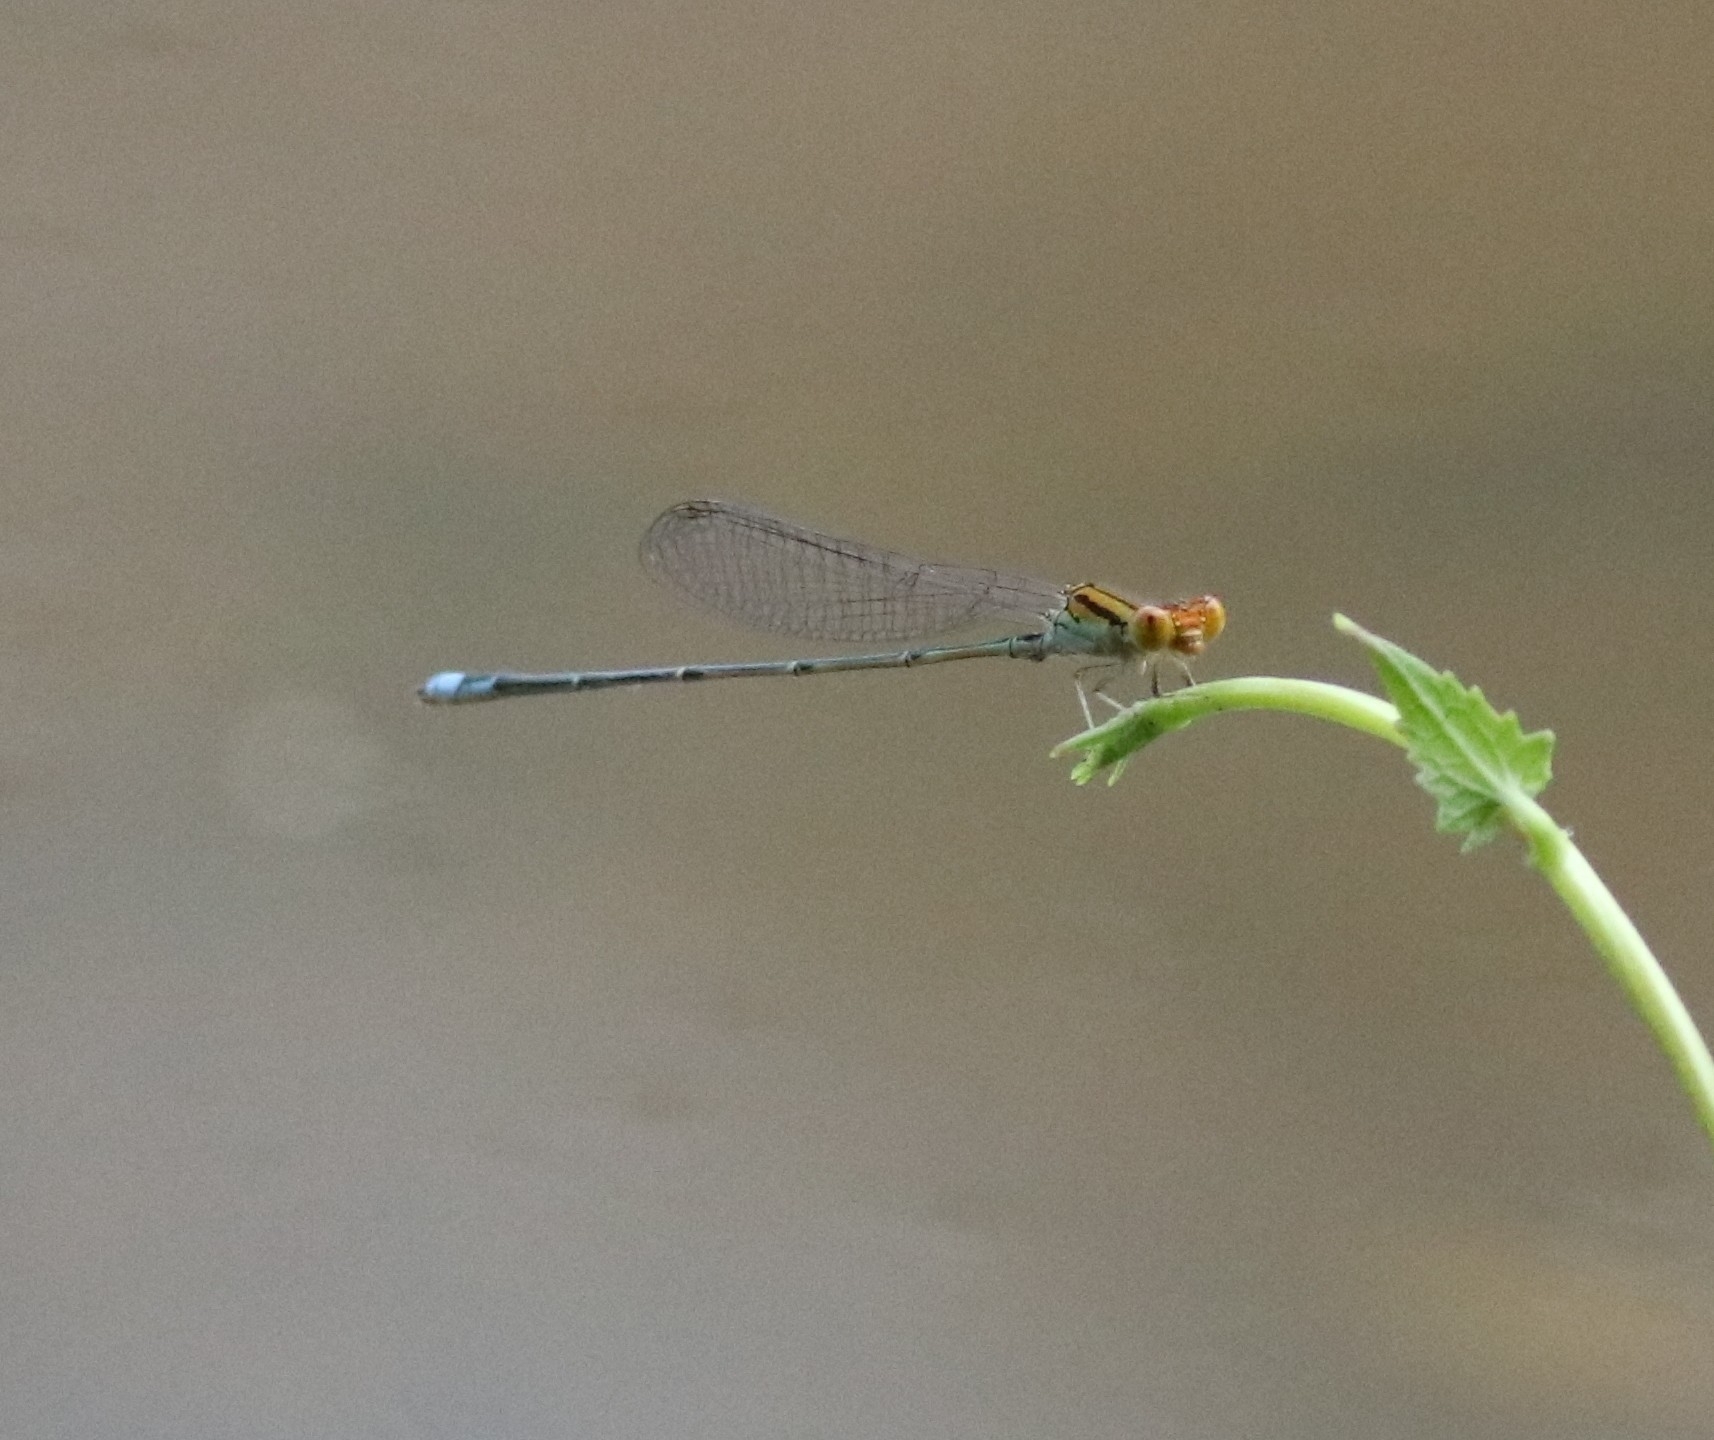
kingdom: Animalia
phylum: Arthropoda
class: Insecta
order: Odonata
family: Coenagrionidae
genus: Pseudagrion
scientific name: Pseudagrion rubriceps
